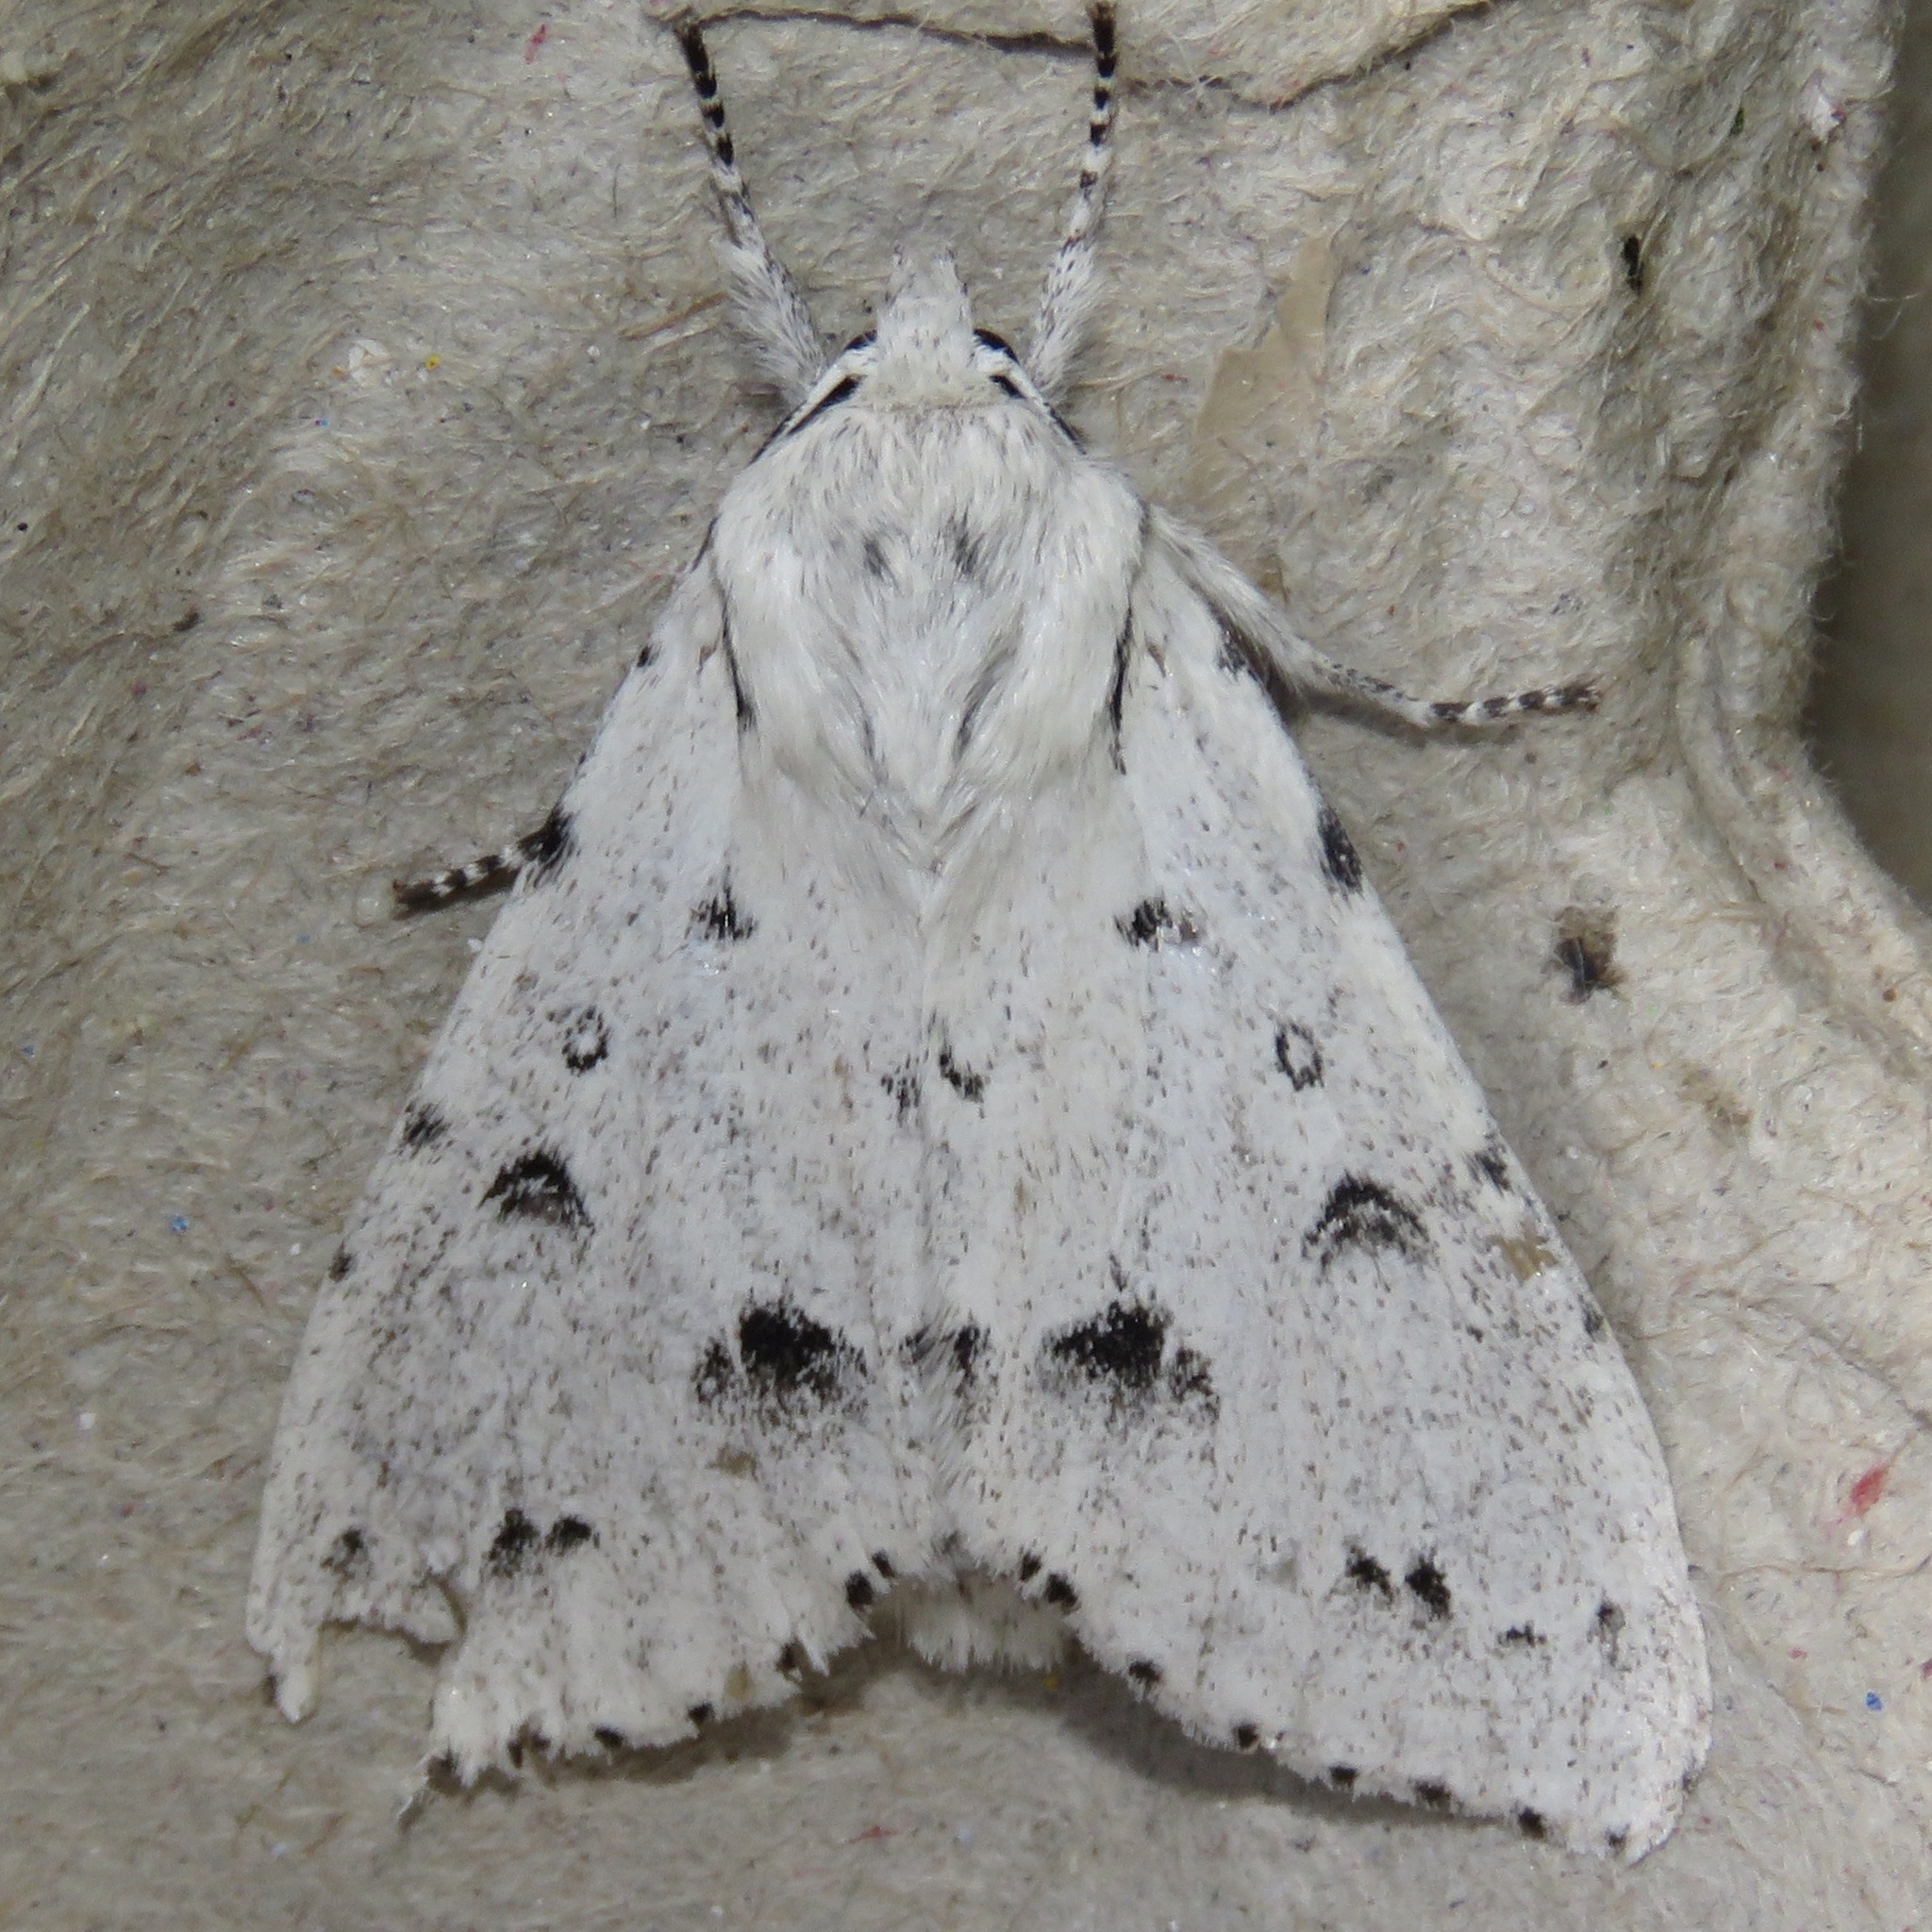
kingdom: Animalia
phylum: Arthropoda
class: Insecta
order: Lepidoptera
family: Noctuidae
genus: Acronicta
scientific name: Acronicta vulpina
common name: Miller dagger
